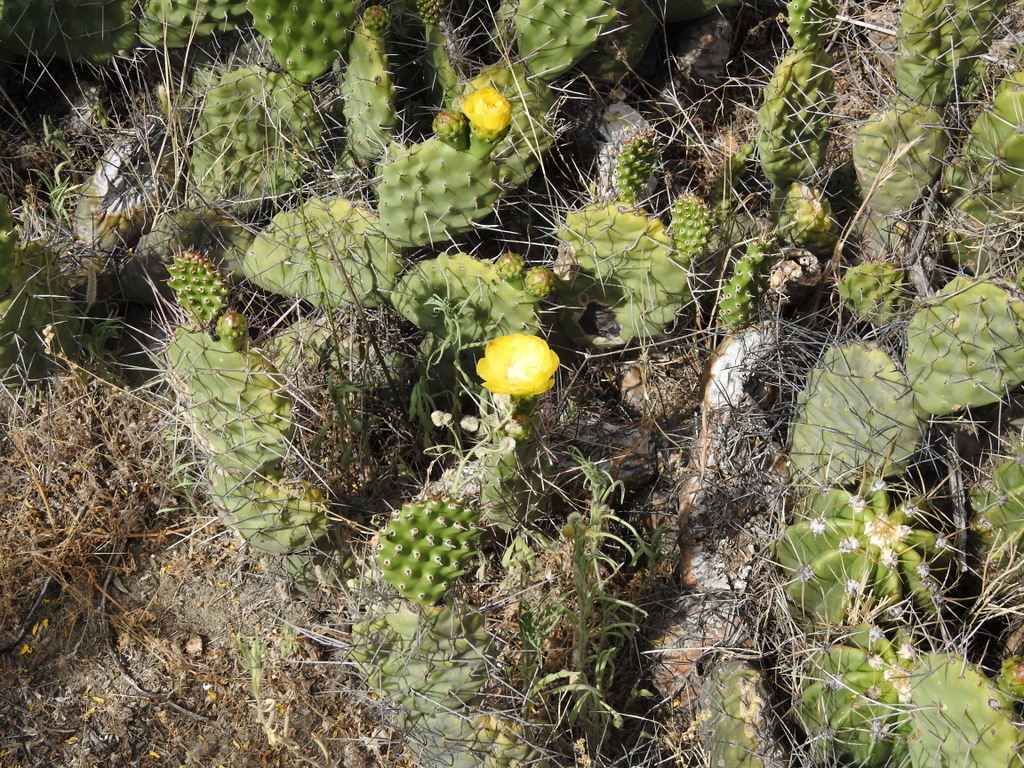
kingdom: Plantae
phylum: Tracheophyta
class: Magnoliopsida
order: Caryophyllales
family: Cactaceae
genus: Opuntia
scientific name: Opuntia sulphurea
